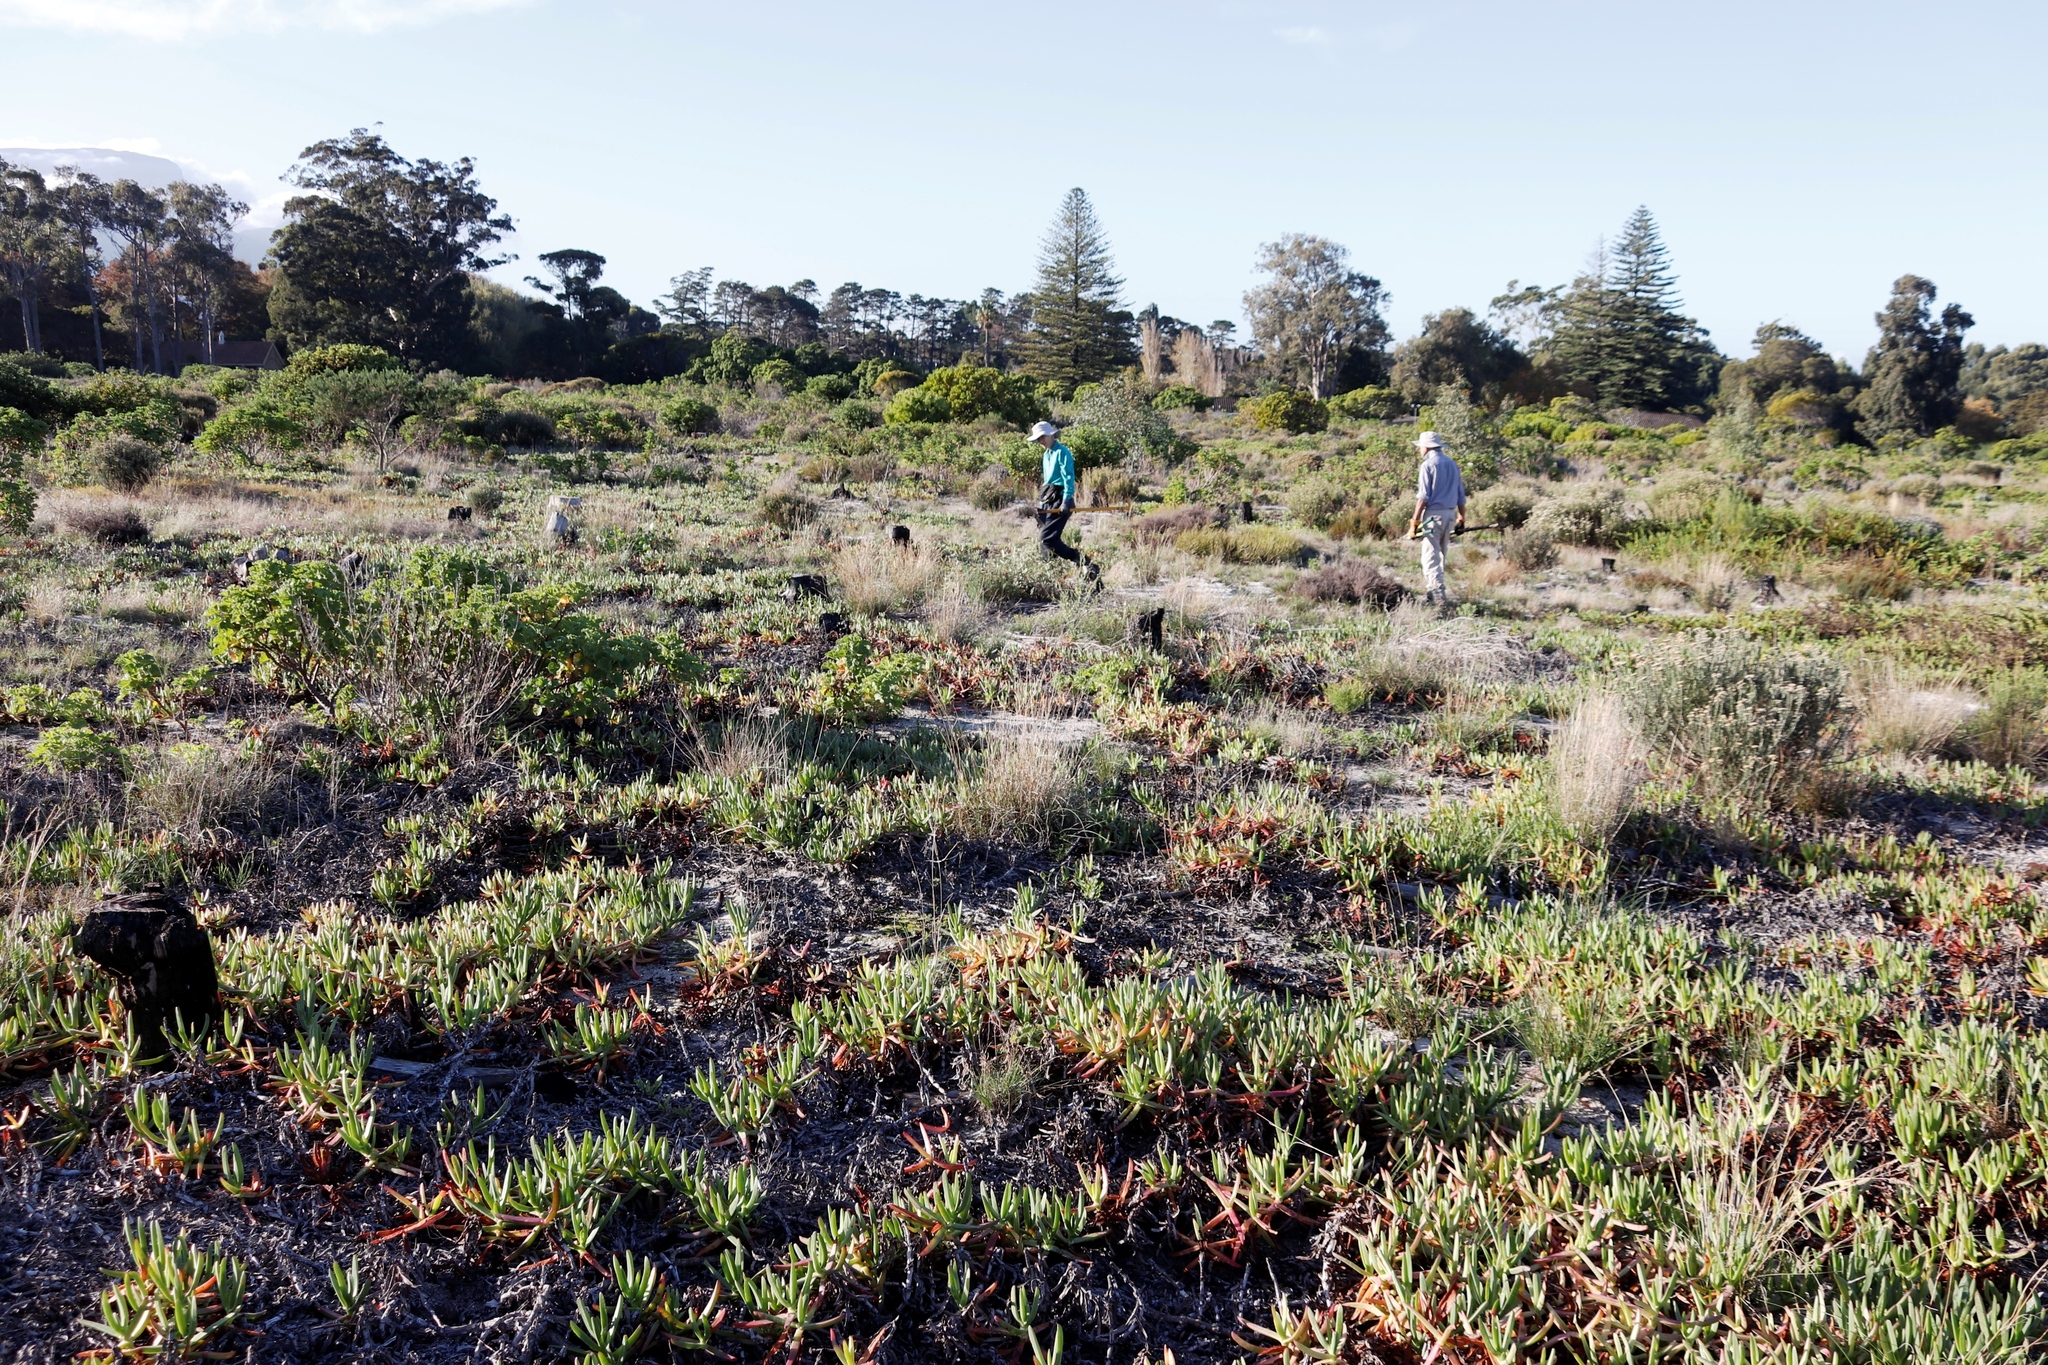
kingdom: Plantae
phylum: Tracheophyta
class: Magnoliopsida
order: Caryophyllales
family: Aizoaceae
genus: Carpobrotus
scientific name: Carpobrotus edulis
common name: Hottentot-fig
